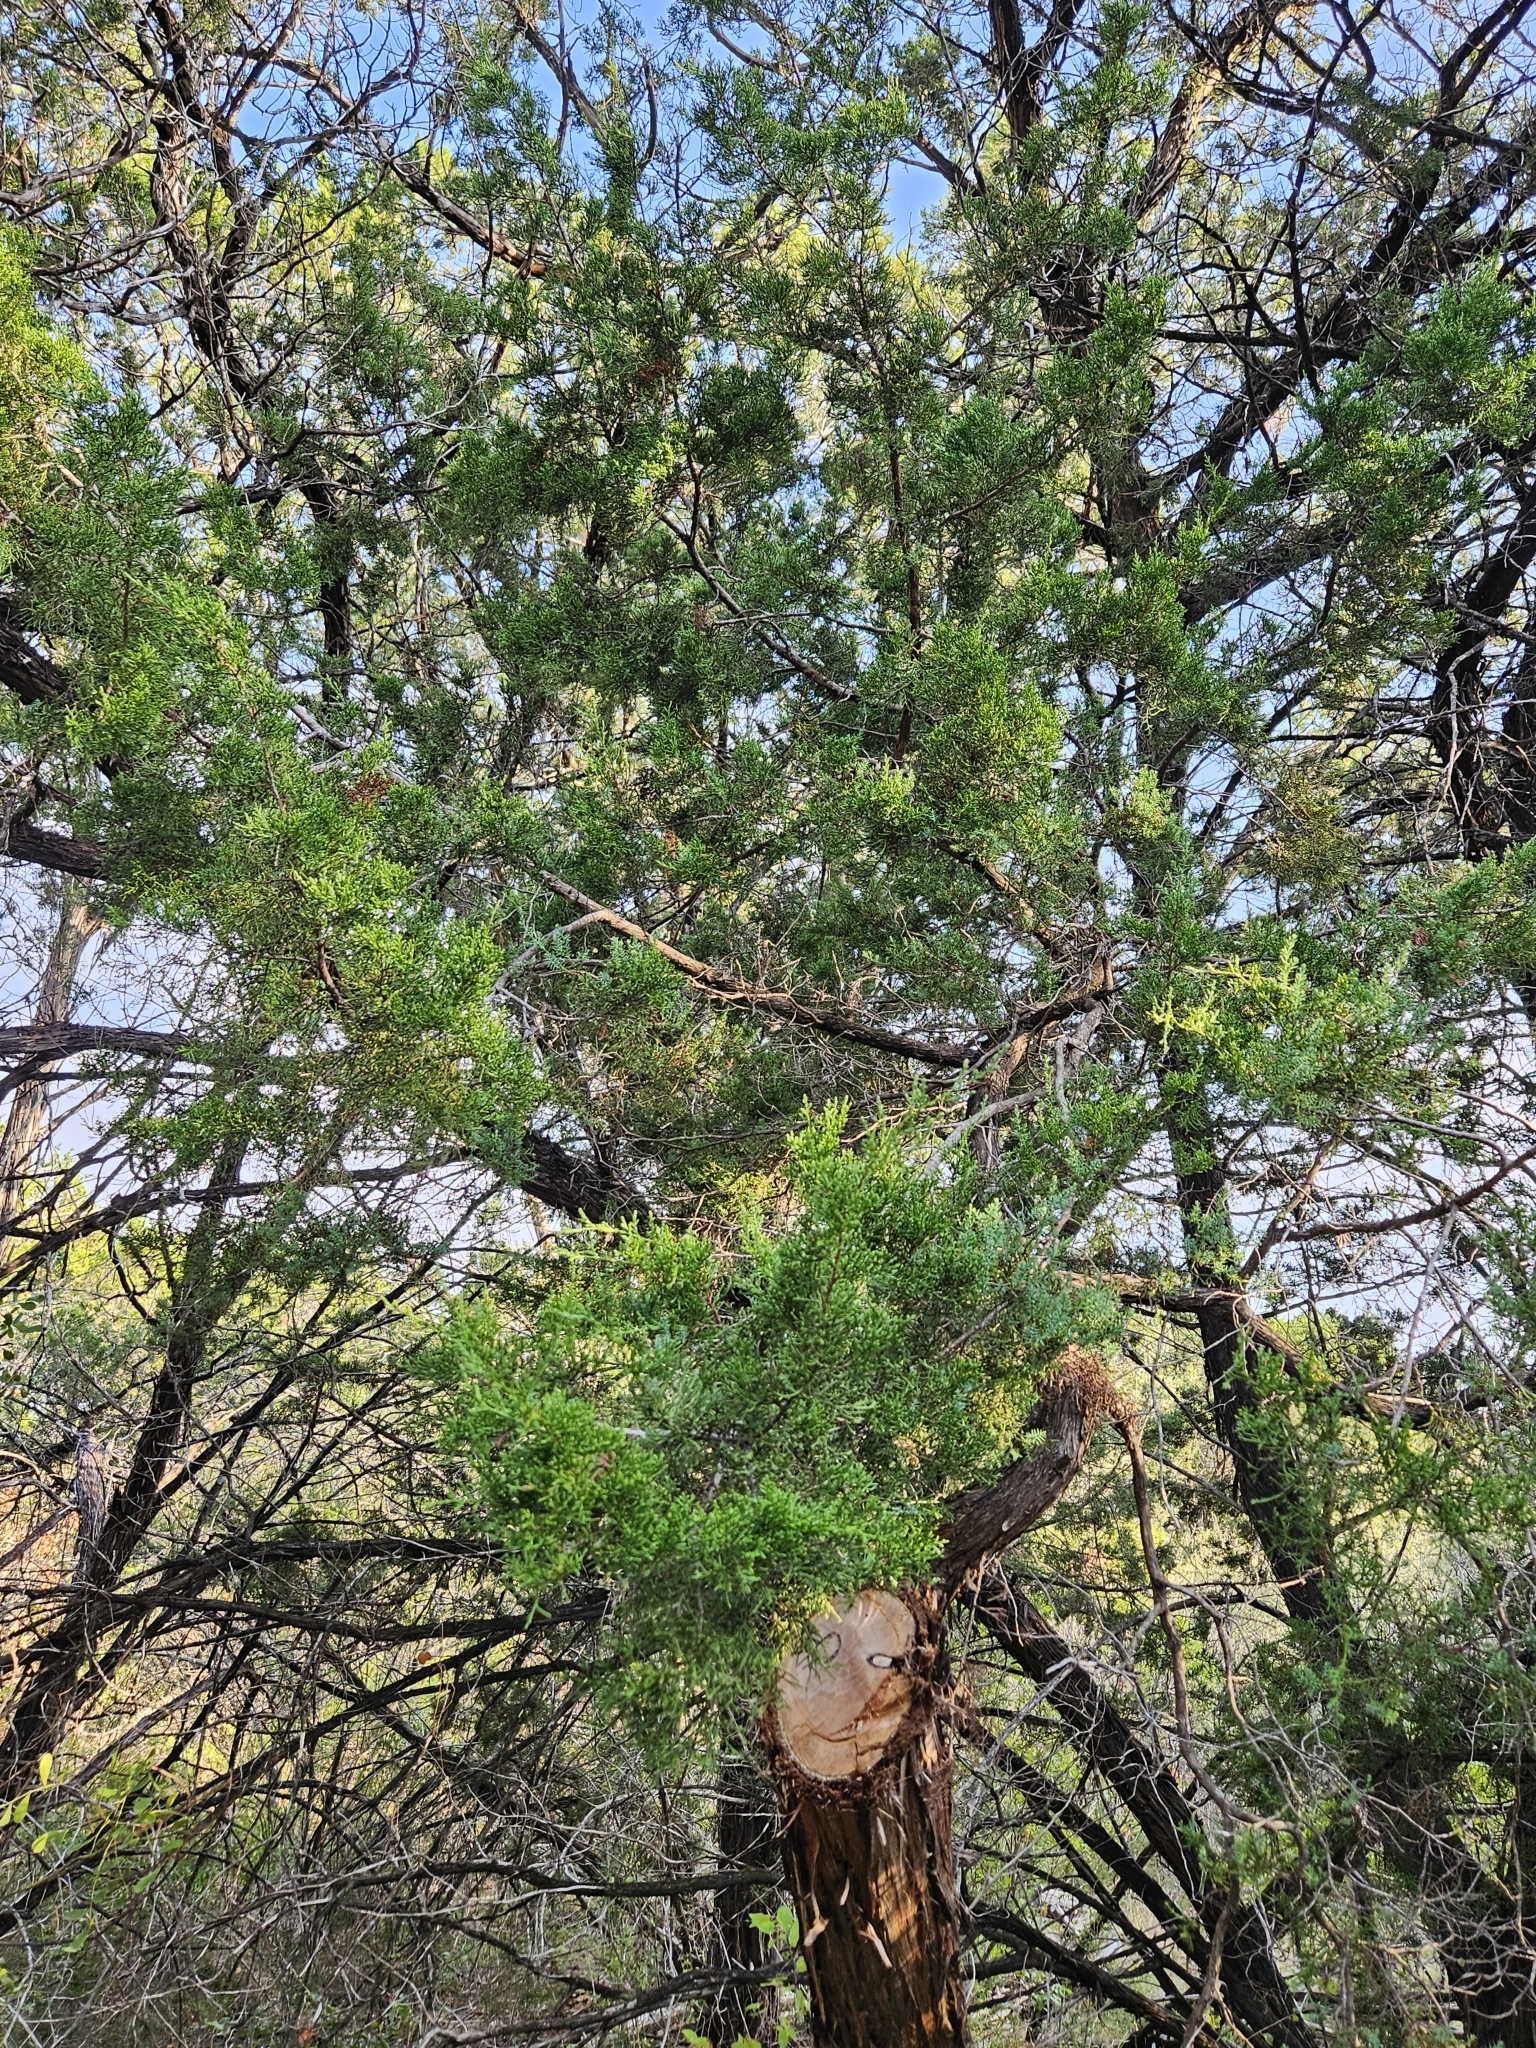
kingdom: Plantae
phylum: Tracheophyta
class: Pinopsida
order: Pinales
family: Cupressaceae
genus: Juniperus
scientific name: Juniperus ashei
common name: Mexican juniper
